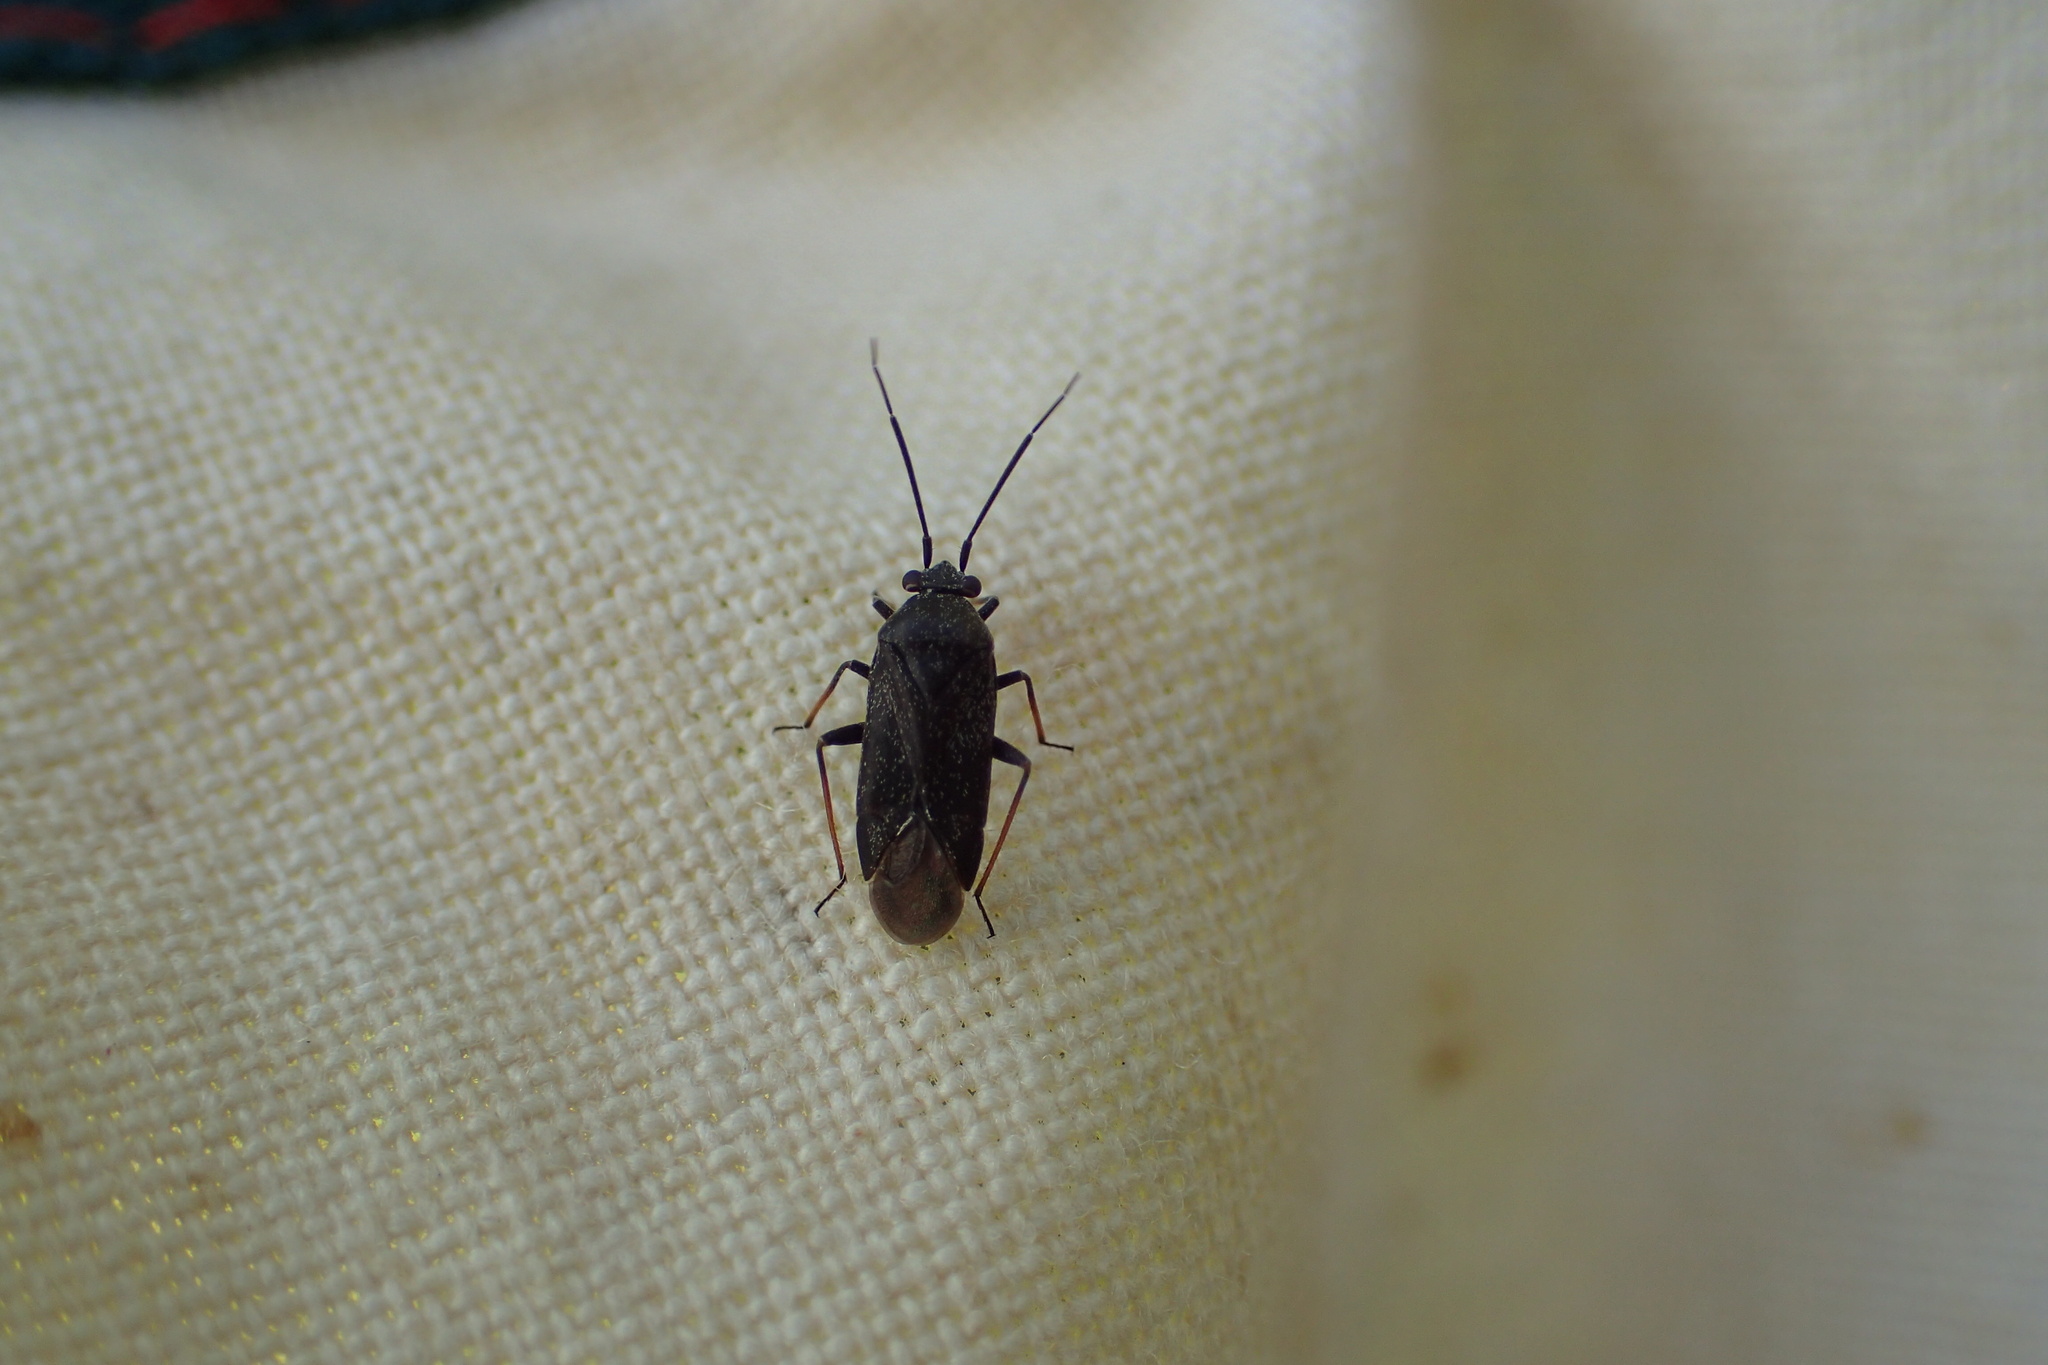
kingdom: Animalia
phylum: Arthropoda
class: Insecta
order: Hemiptera
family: Miridae
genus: Heterocordylus
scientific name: Heterocordylus tibialis
